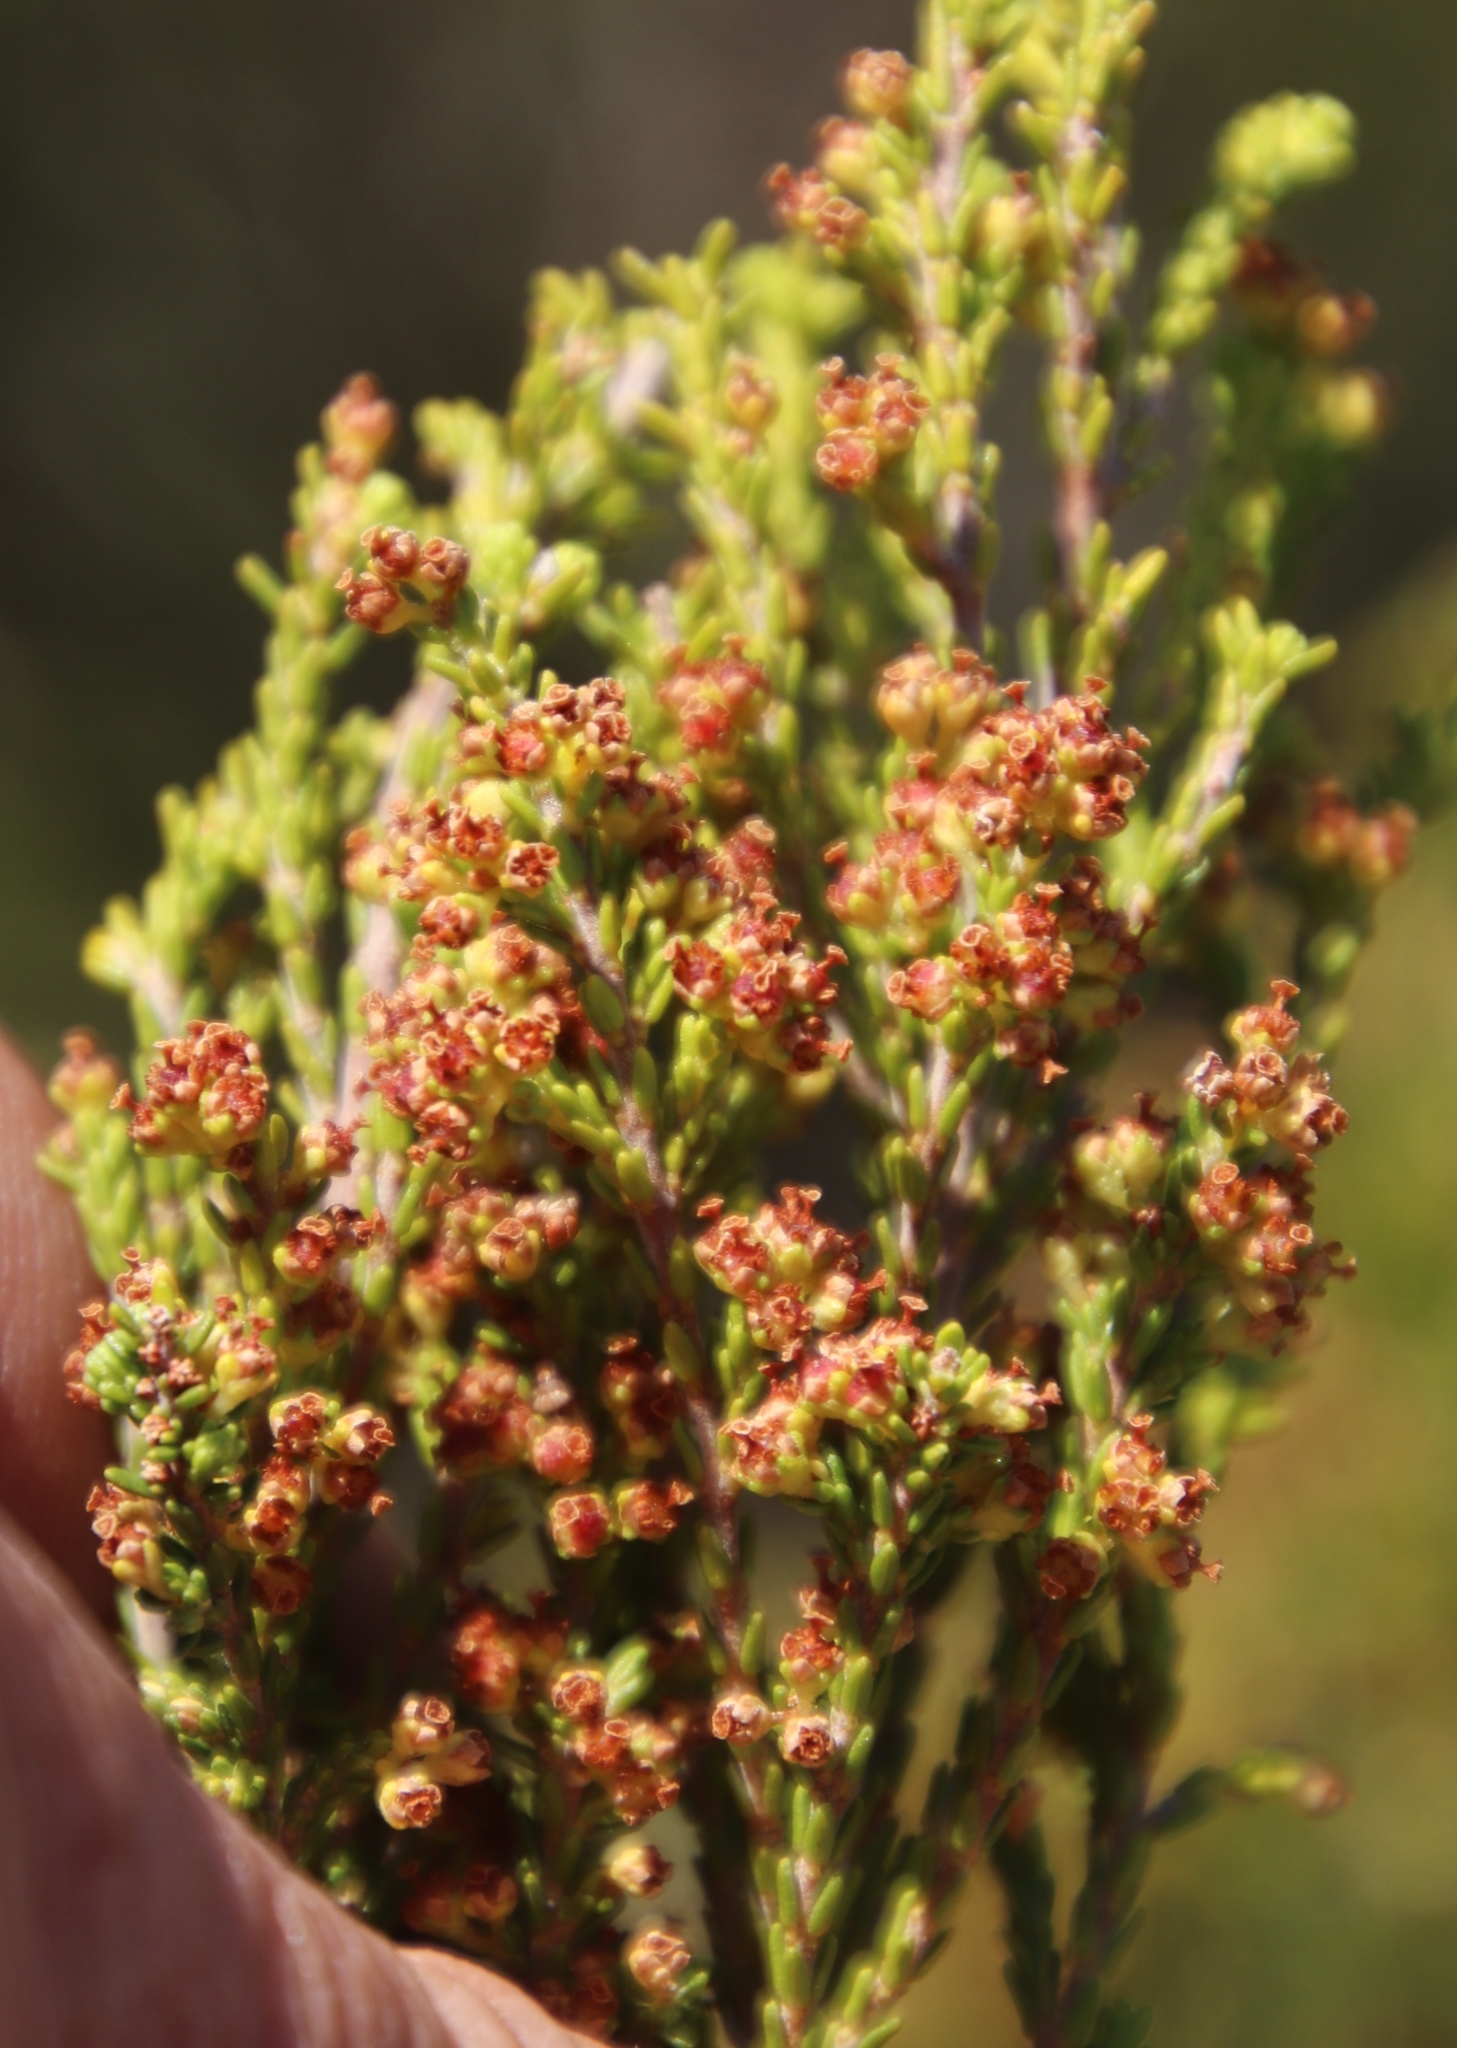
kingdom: Plantae
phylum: Tracheophyta
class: Magnoliopsida
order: Ericales
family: Ericaceae
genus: Erica
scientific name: Erica tristis
